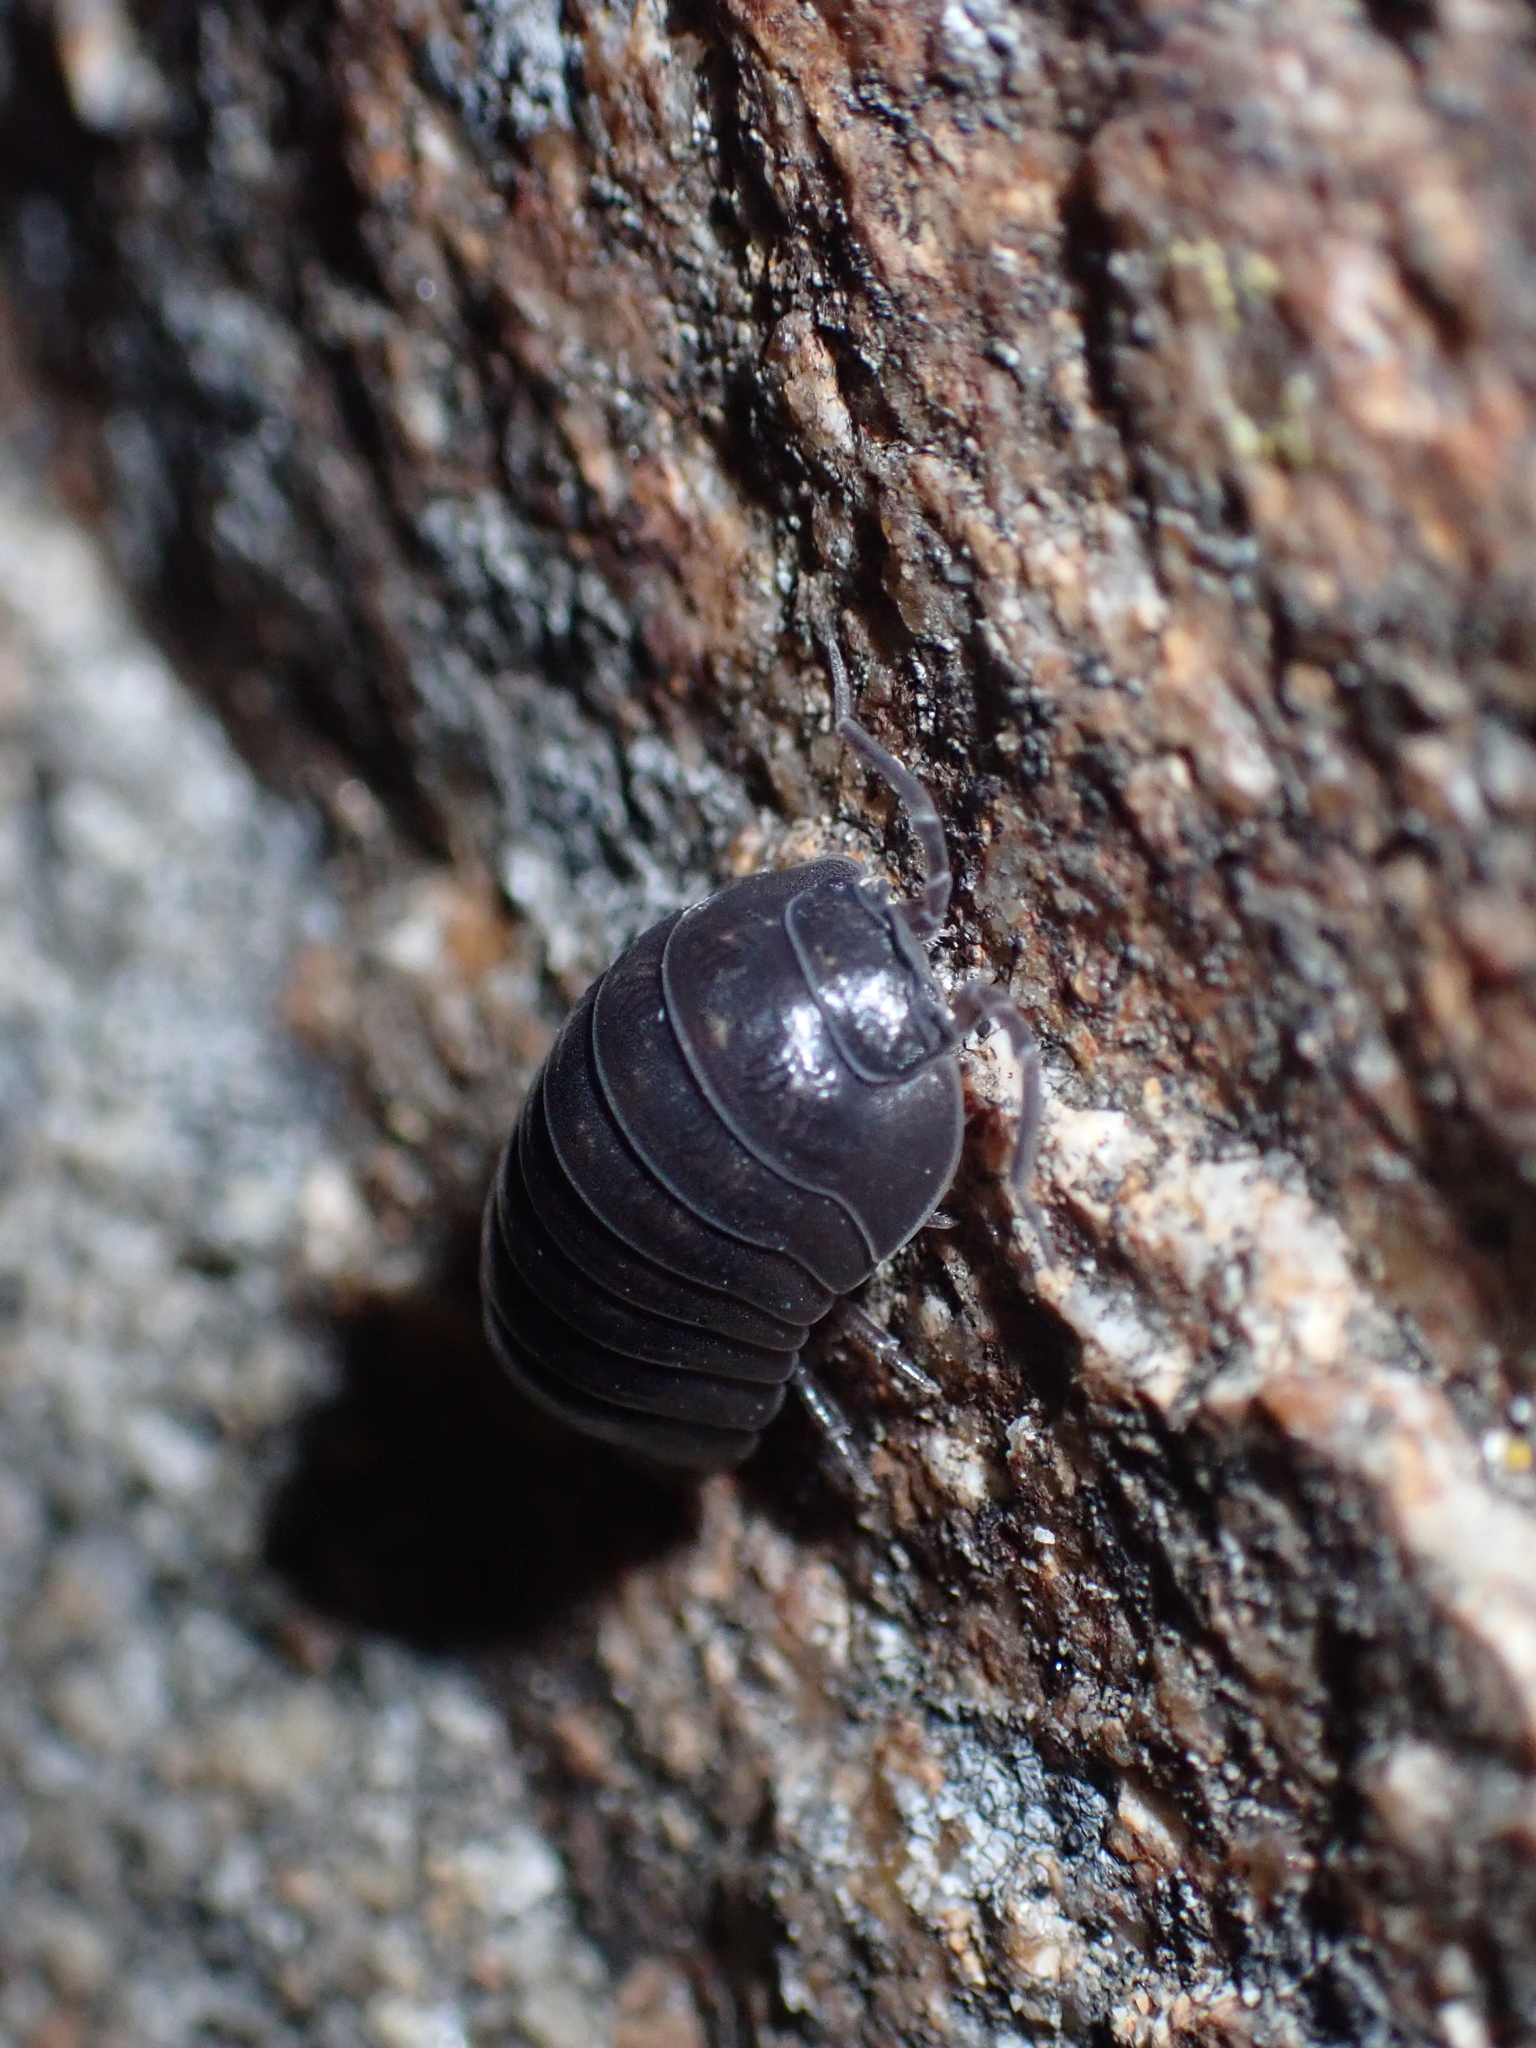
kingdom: Animalia
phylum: Arthropoda
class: Malacostraca
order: Isopoda
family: Armadillidiidae
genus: Armadillidium
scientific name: Armadillidium depressum
